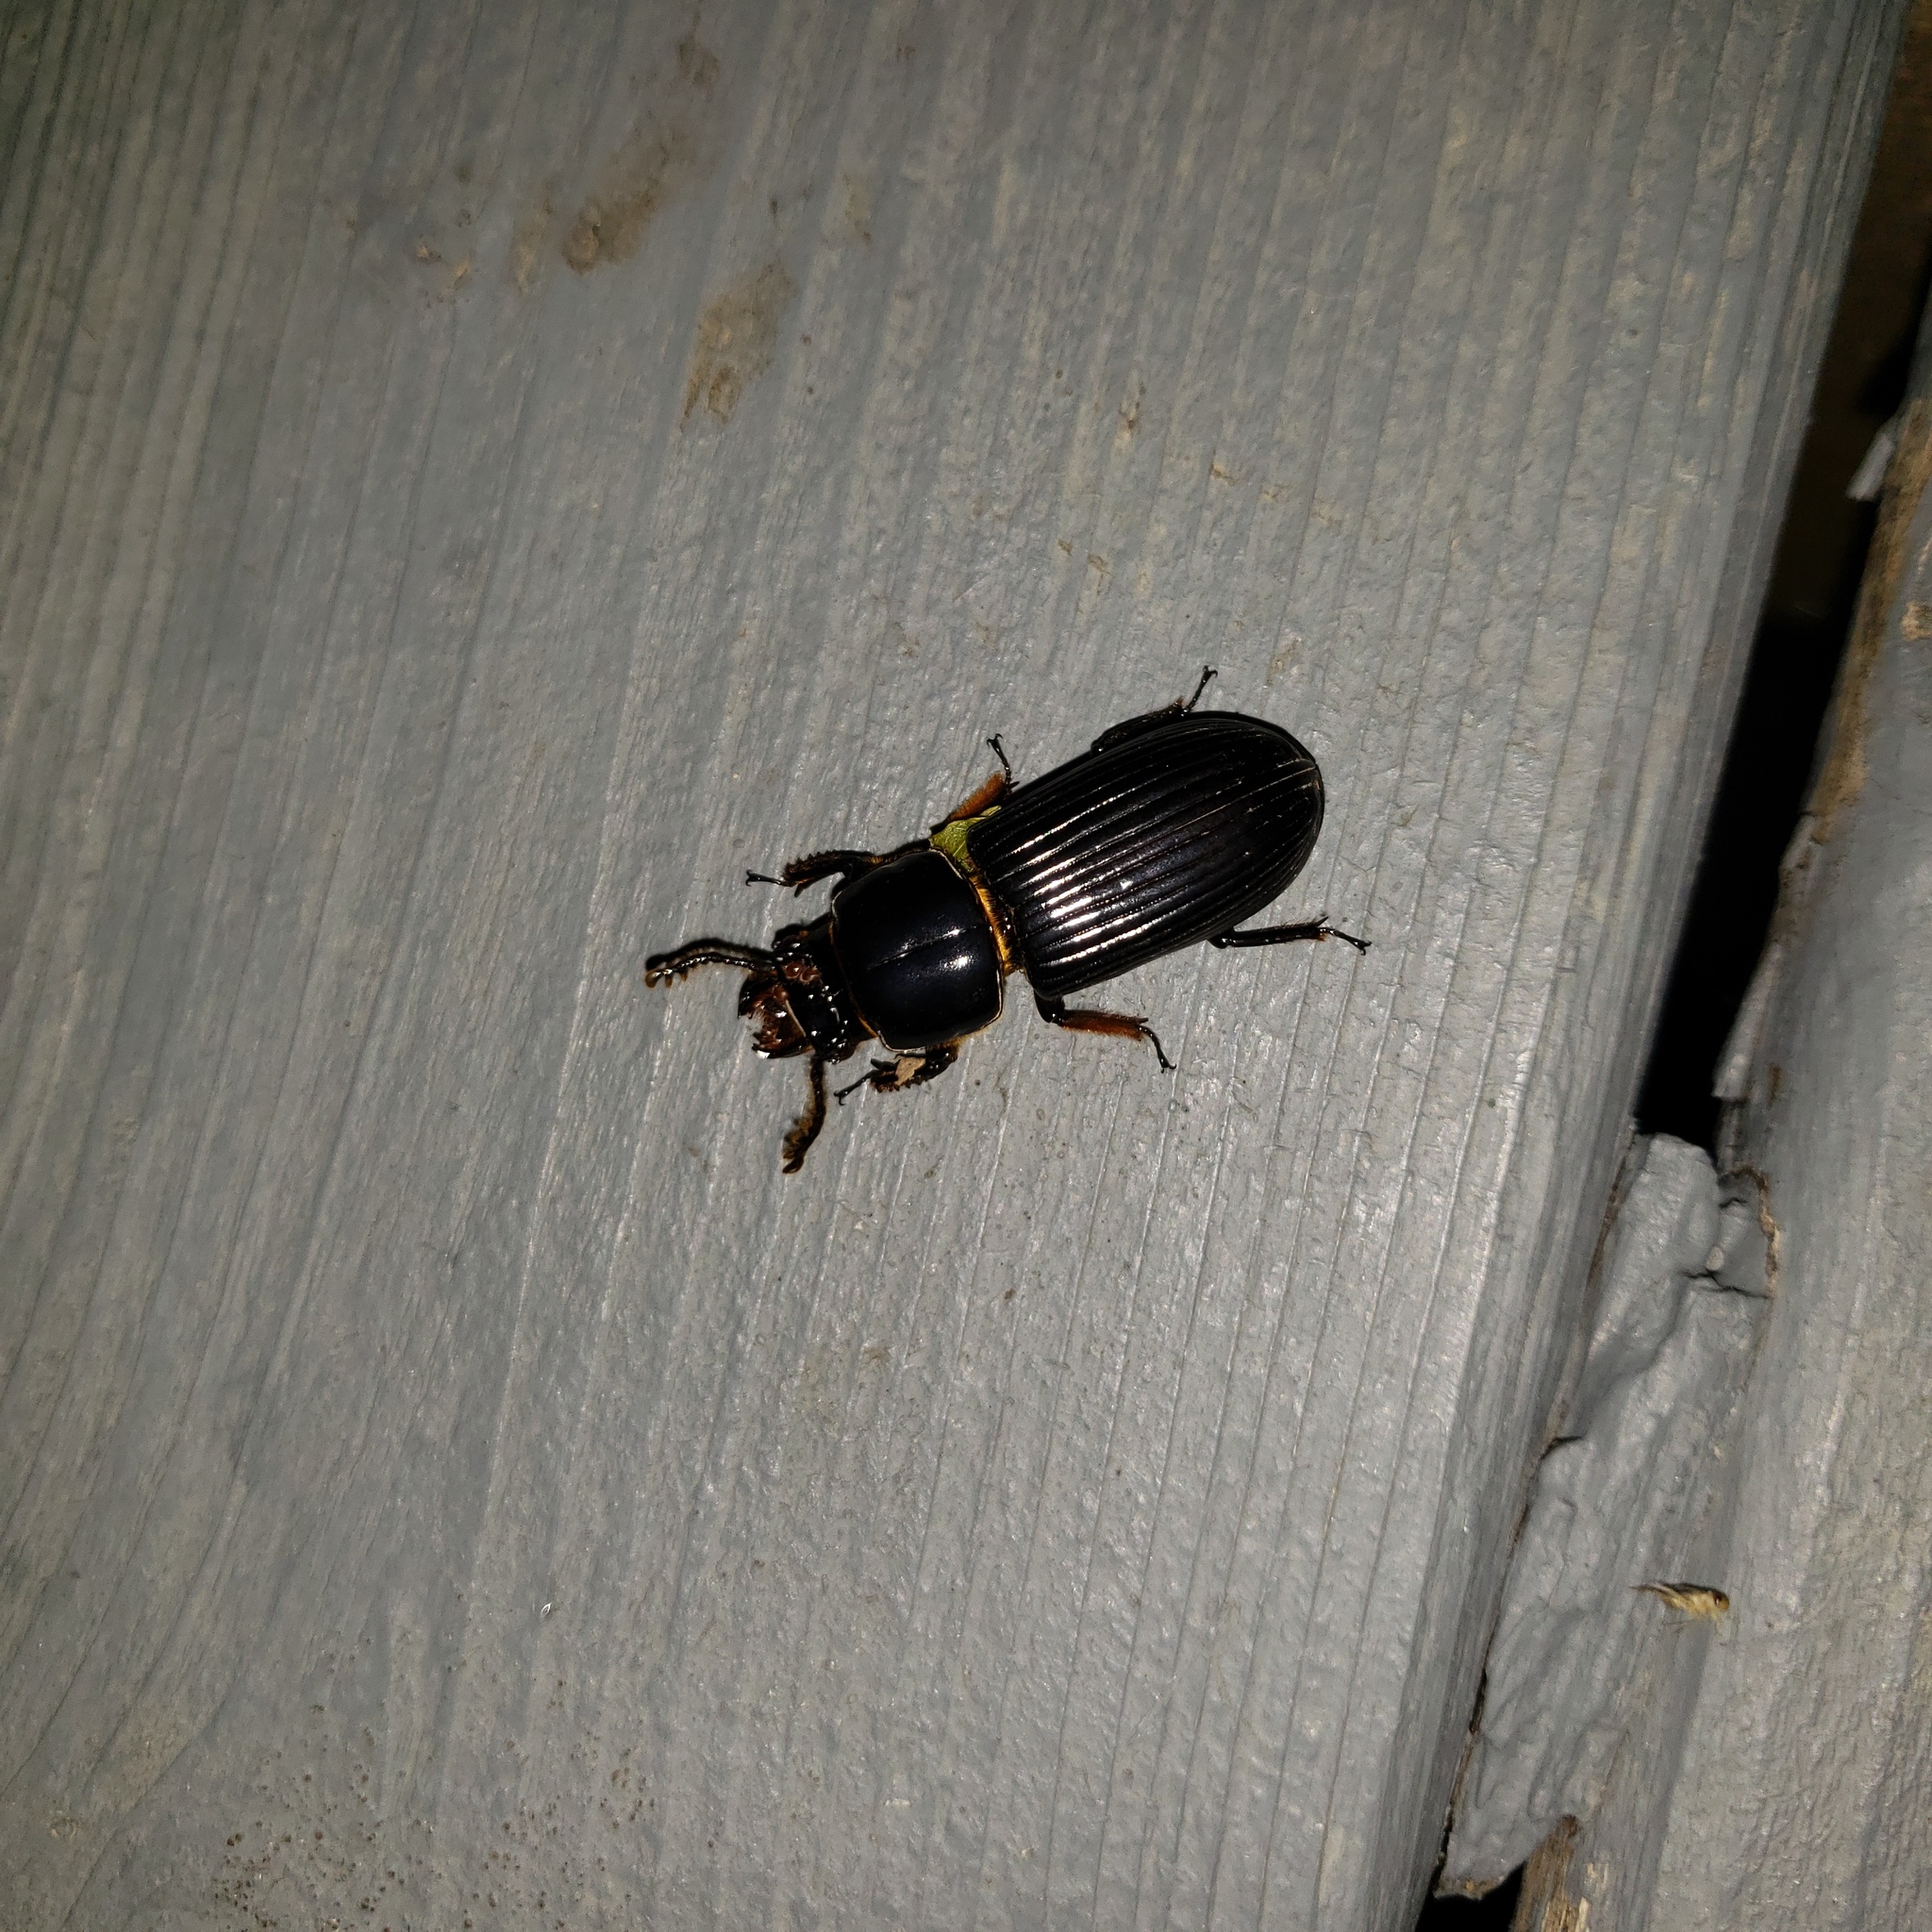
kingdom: Animalia
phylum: Arthropoda
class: Insecta
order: Coleoptera
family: Passalidae
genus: Odontotaenius
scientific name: Odontotaenius disjunctus
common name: Patent leather beetle
